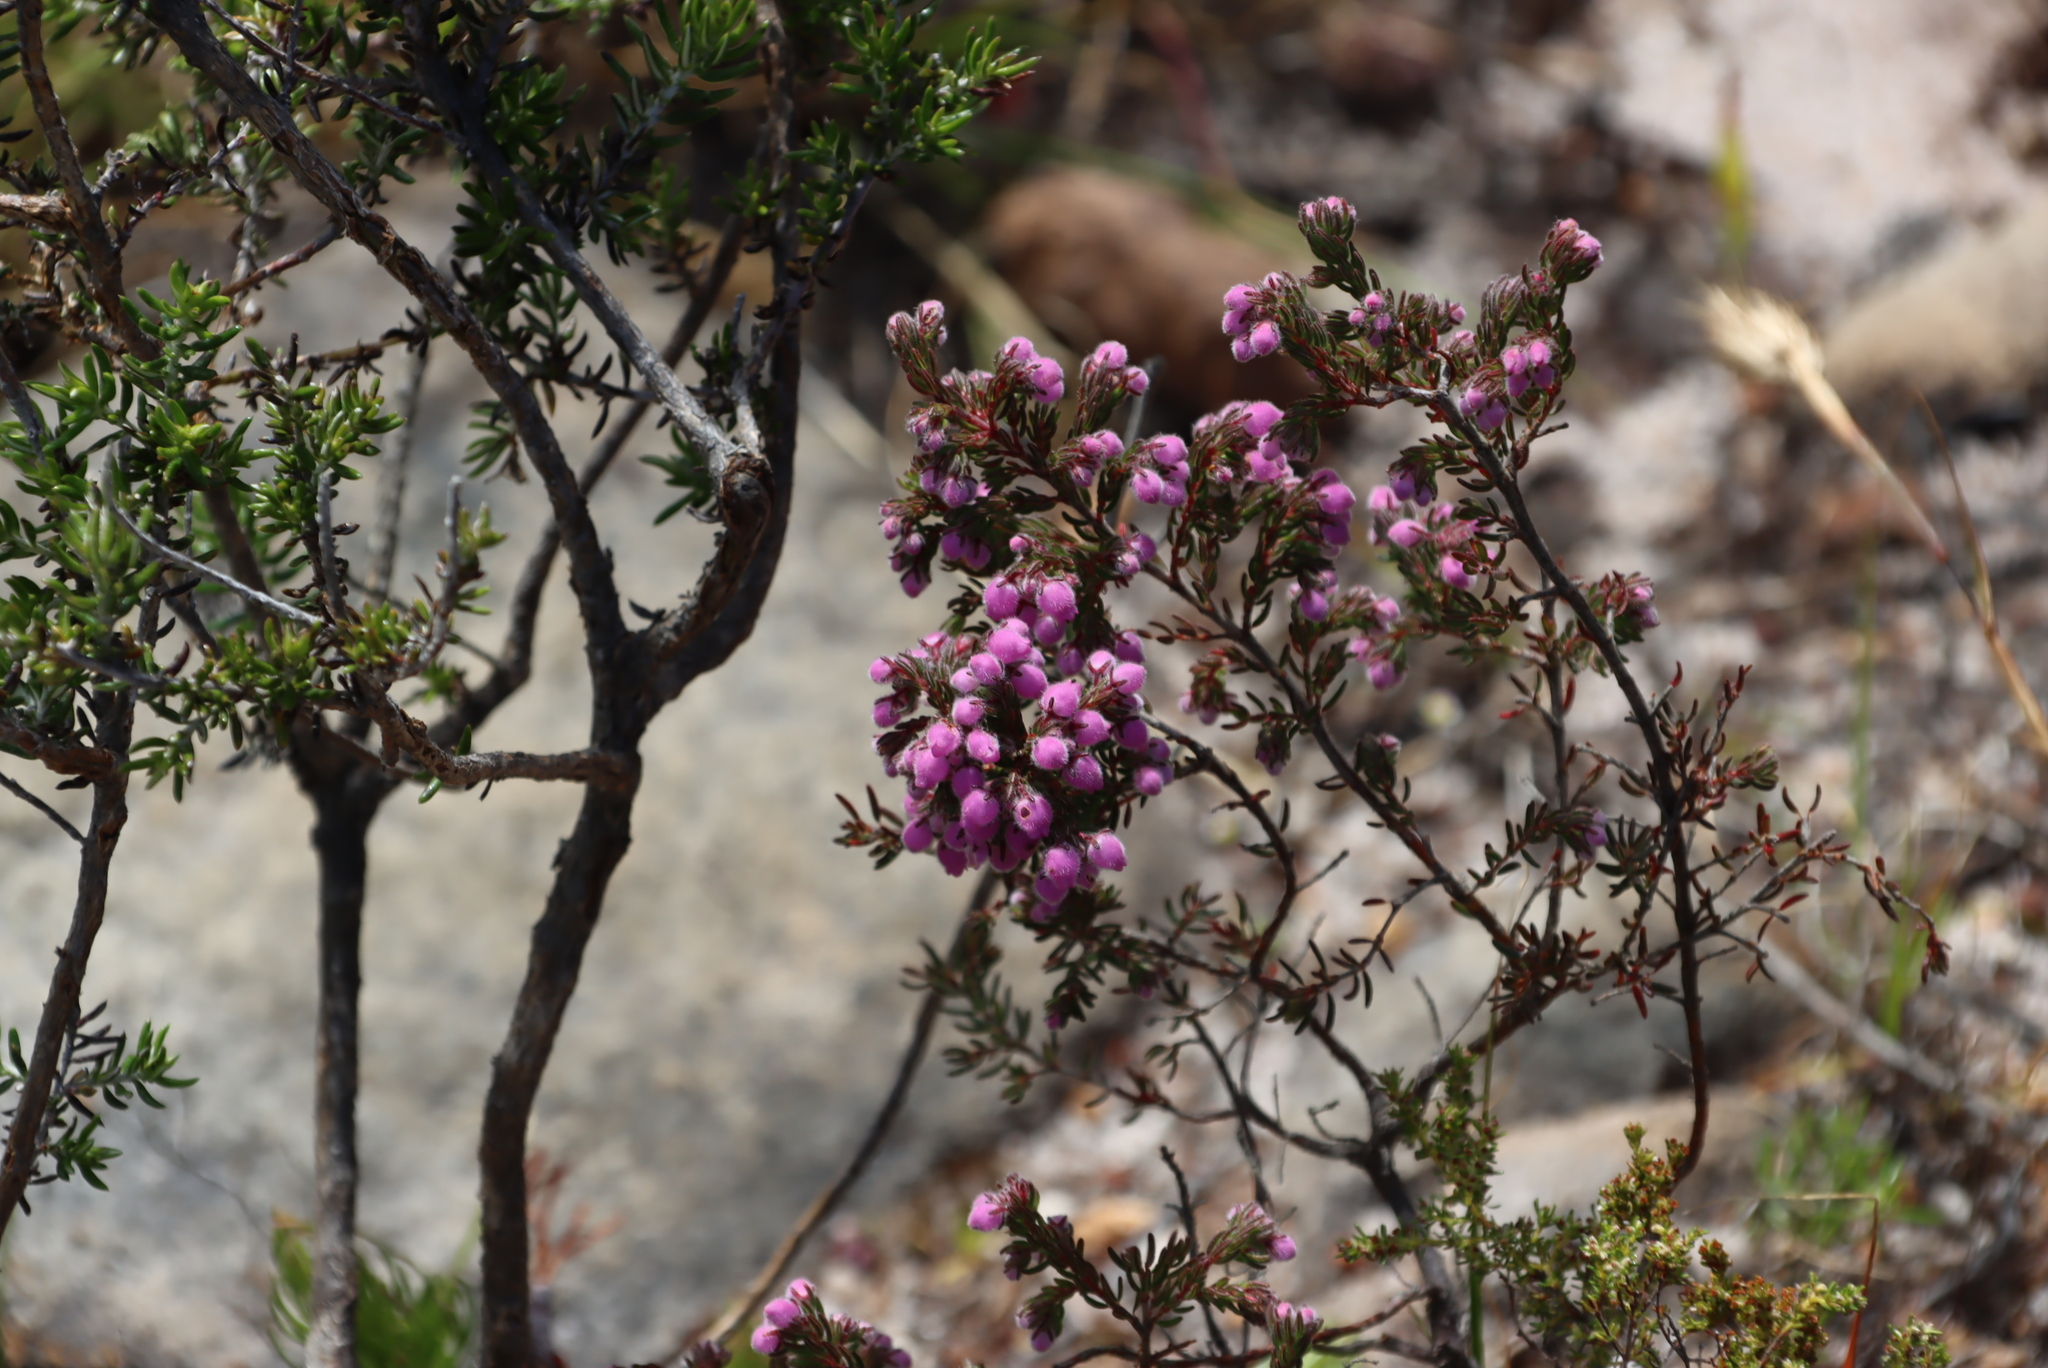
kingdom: Plantae
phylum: Tracheophyta
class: Magnoliopsida
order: Ericales
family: Ericaceae
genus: Erica
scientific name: Erica hirtiflora
